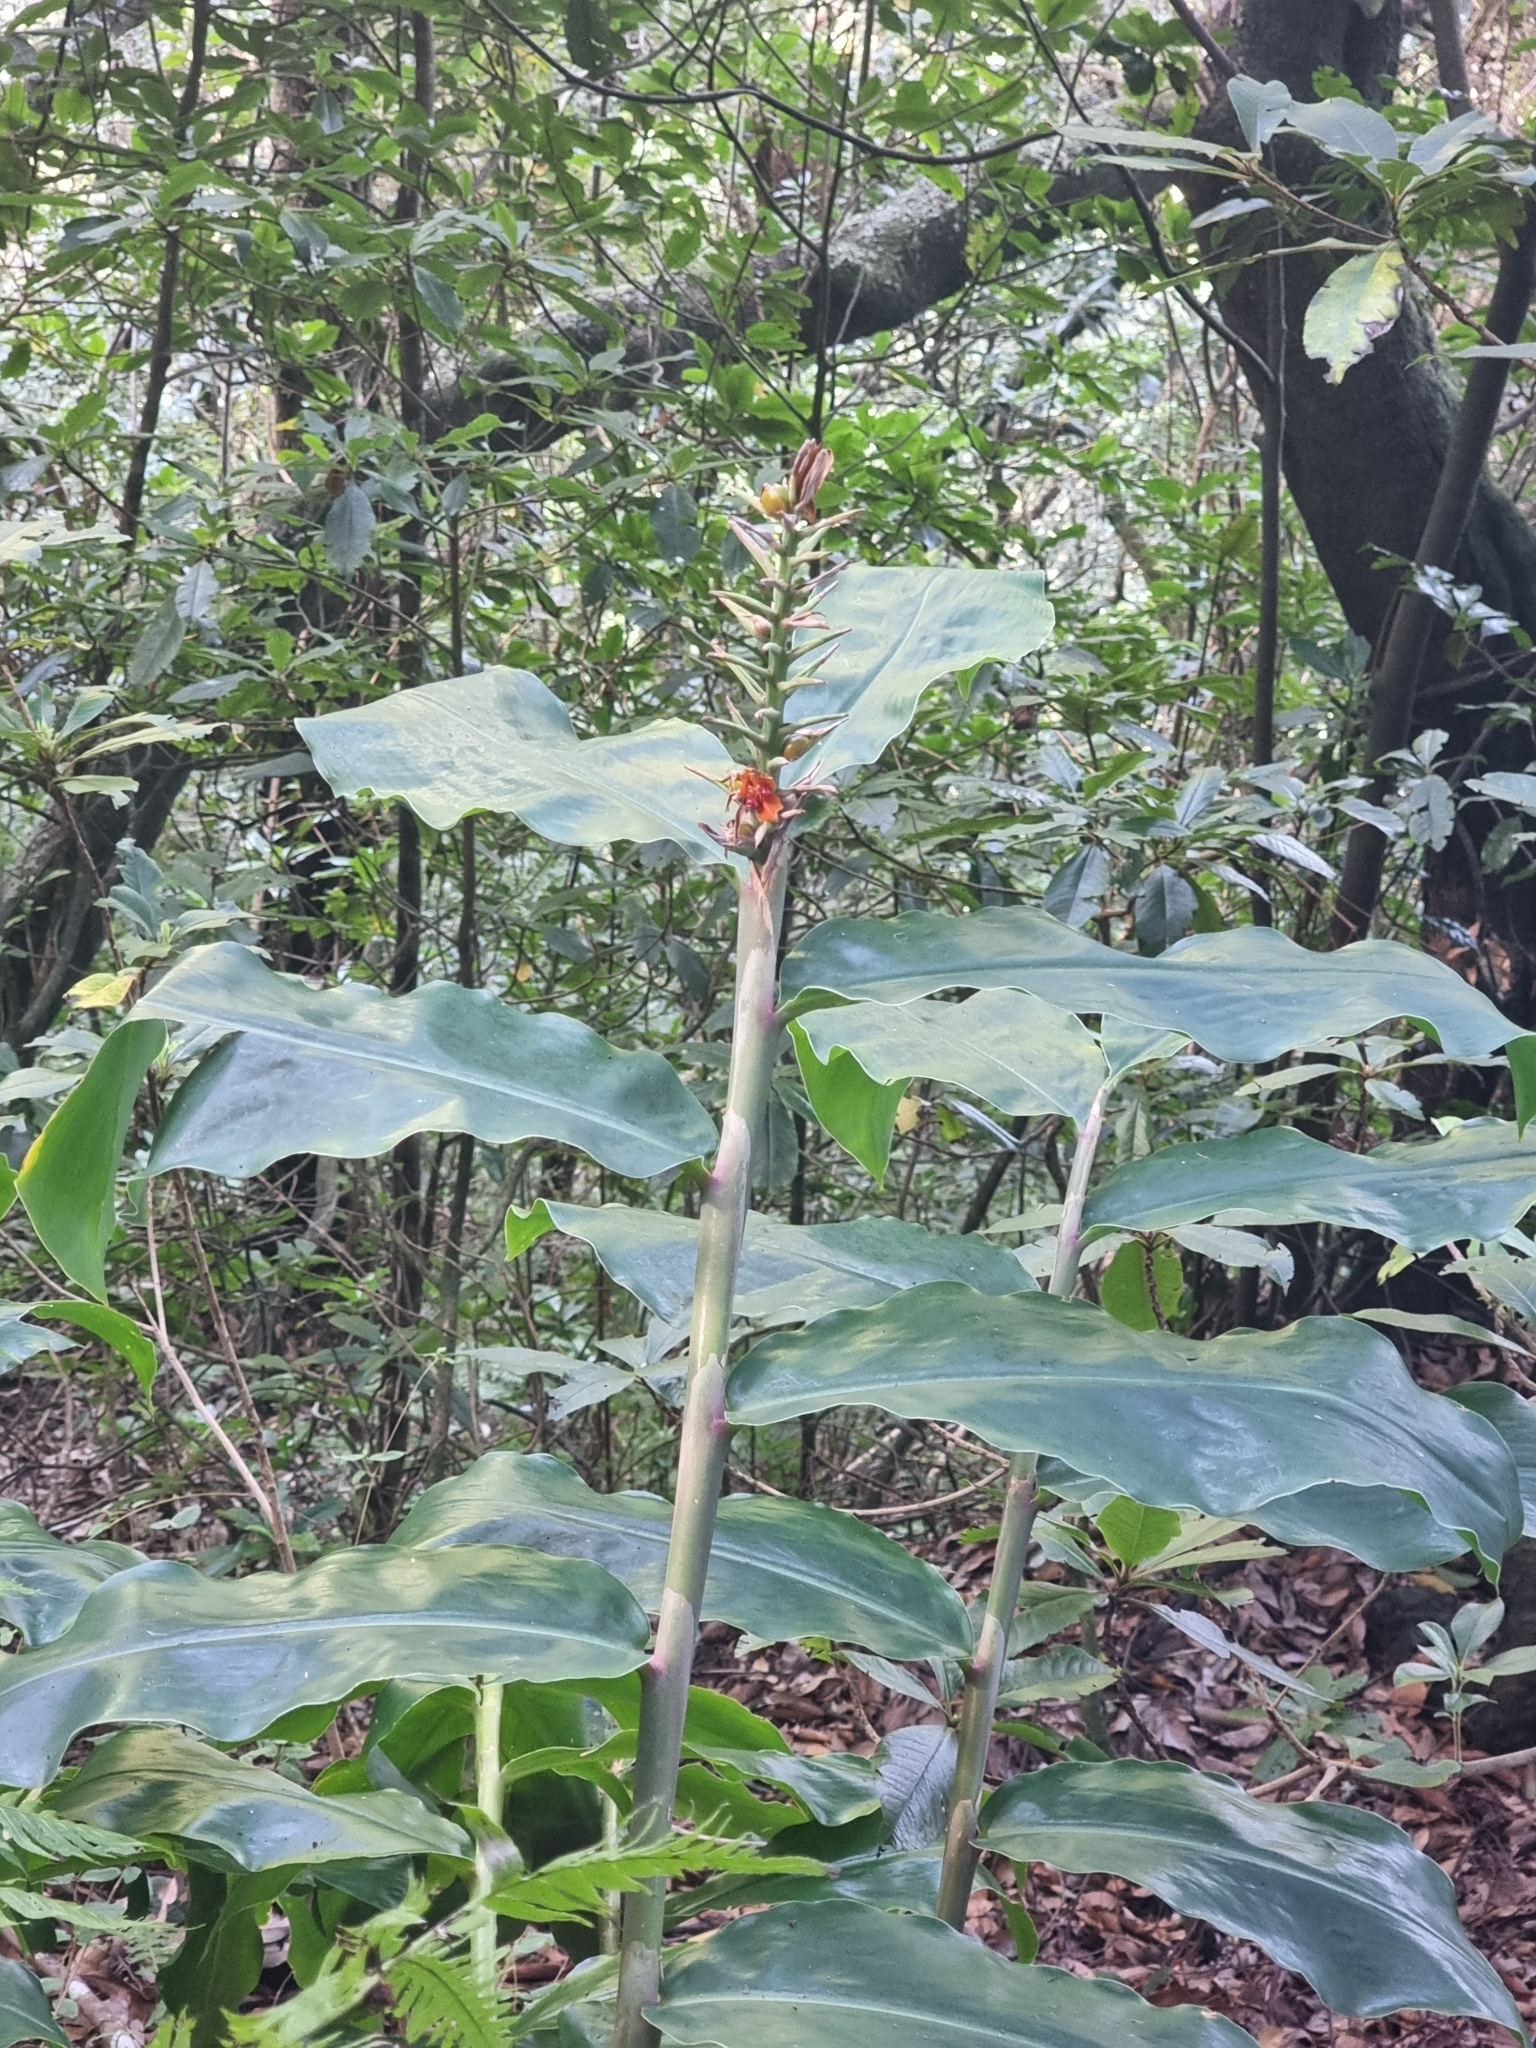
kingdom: Plantae
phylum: Tracheophyta
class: Liliopsida
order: Zingiberales
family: Zingiberaceae
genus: Hedychium
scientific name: Hedychium gardnerianum
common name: Himalayan ginger
